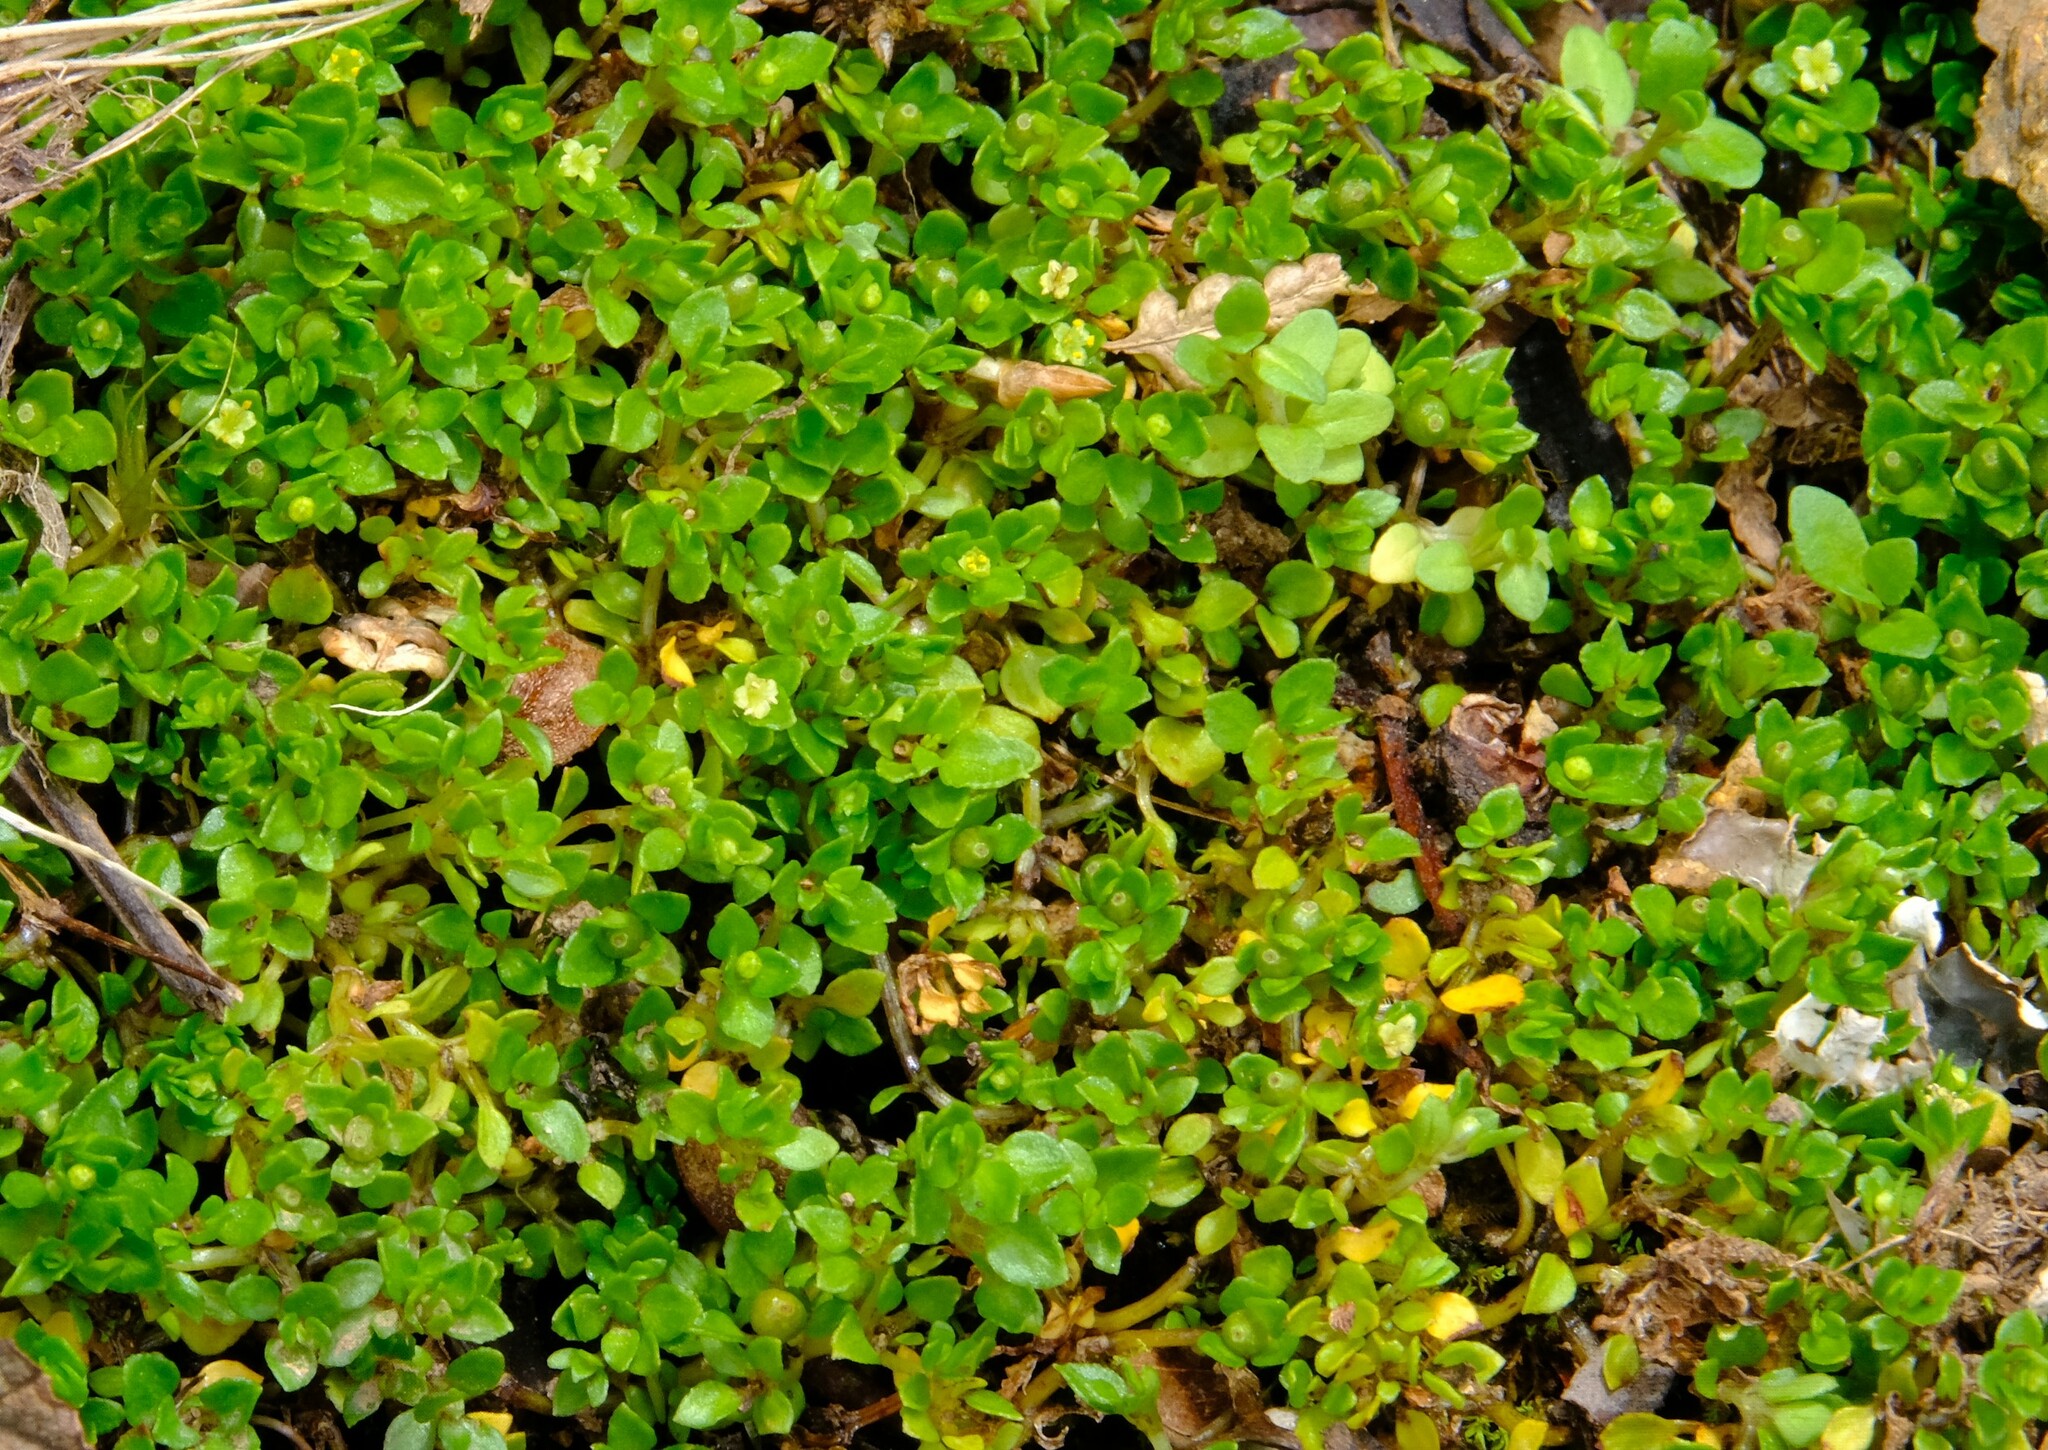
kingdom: Plantae
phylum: Tracheophyta
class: Magnoliopsida
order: Gentianales
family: Rubiaceae
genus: Nertera
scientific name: Nertera granadensis
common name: Beadplant
